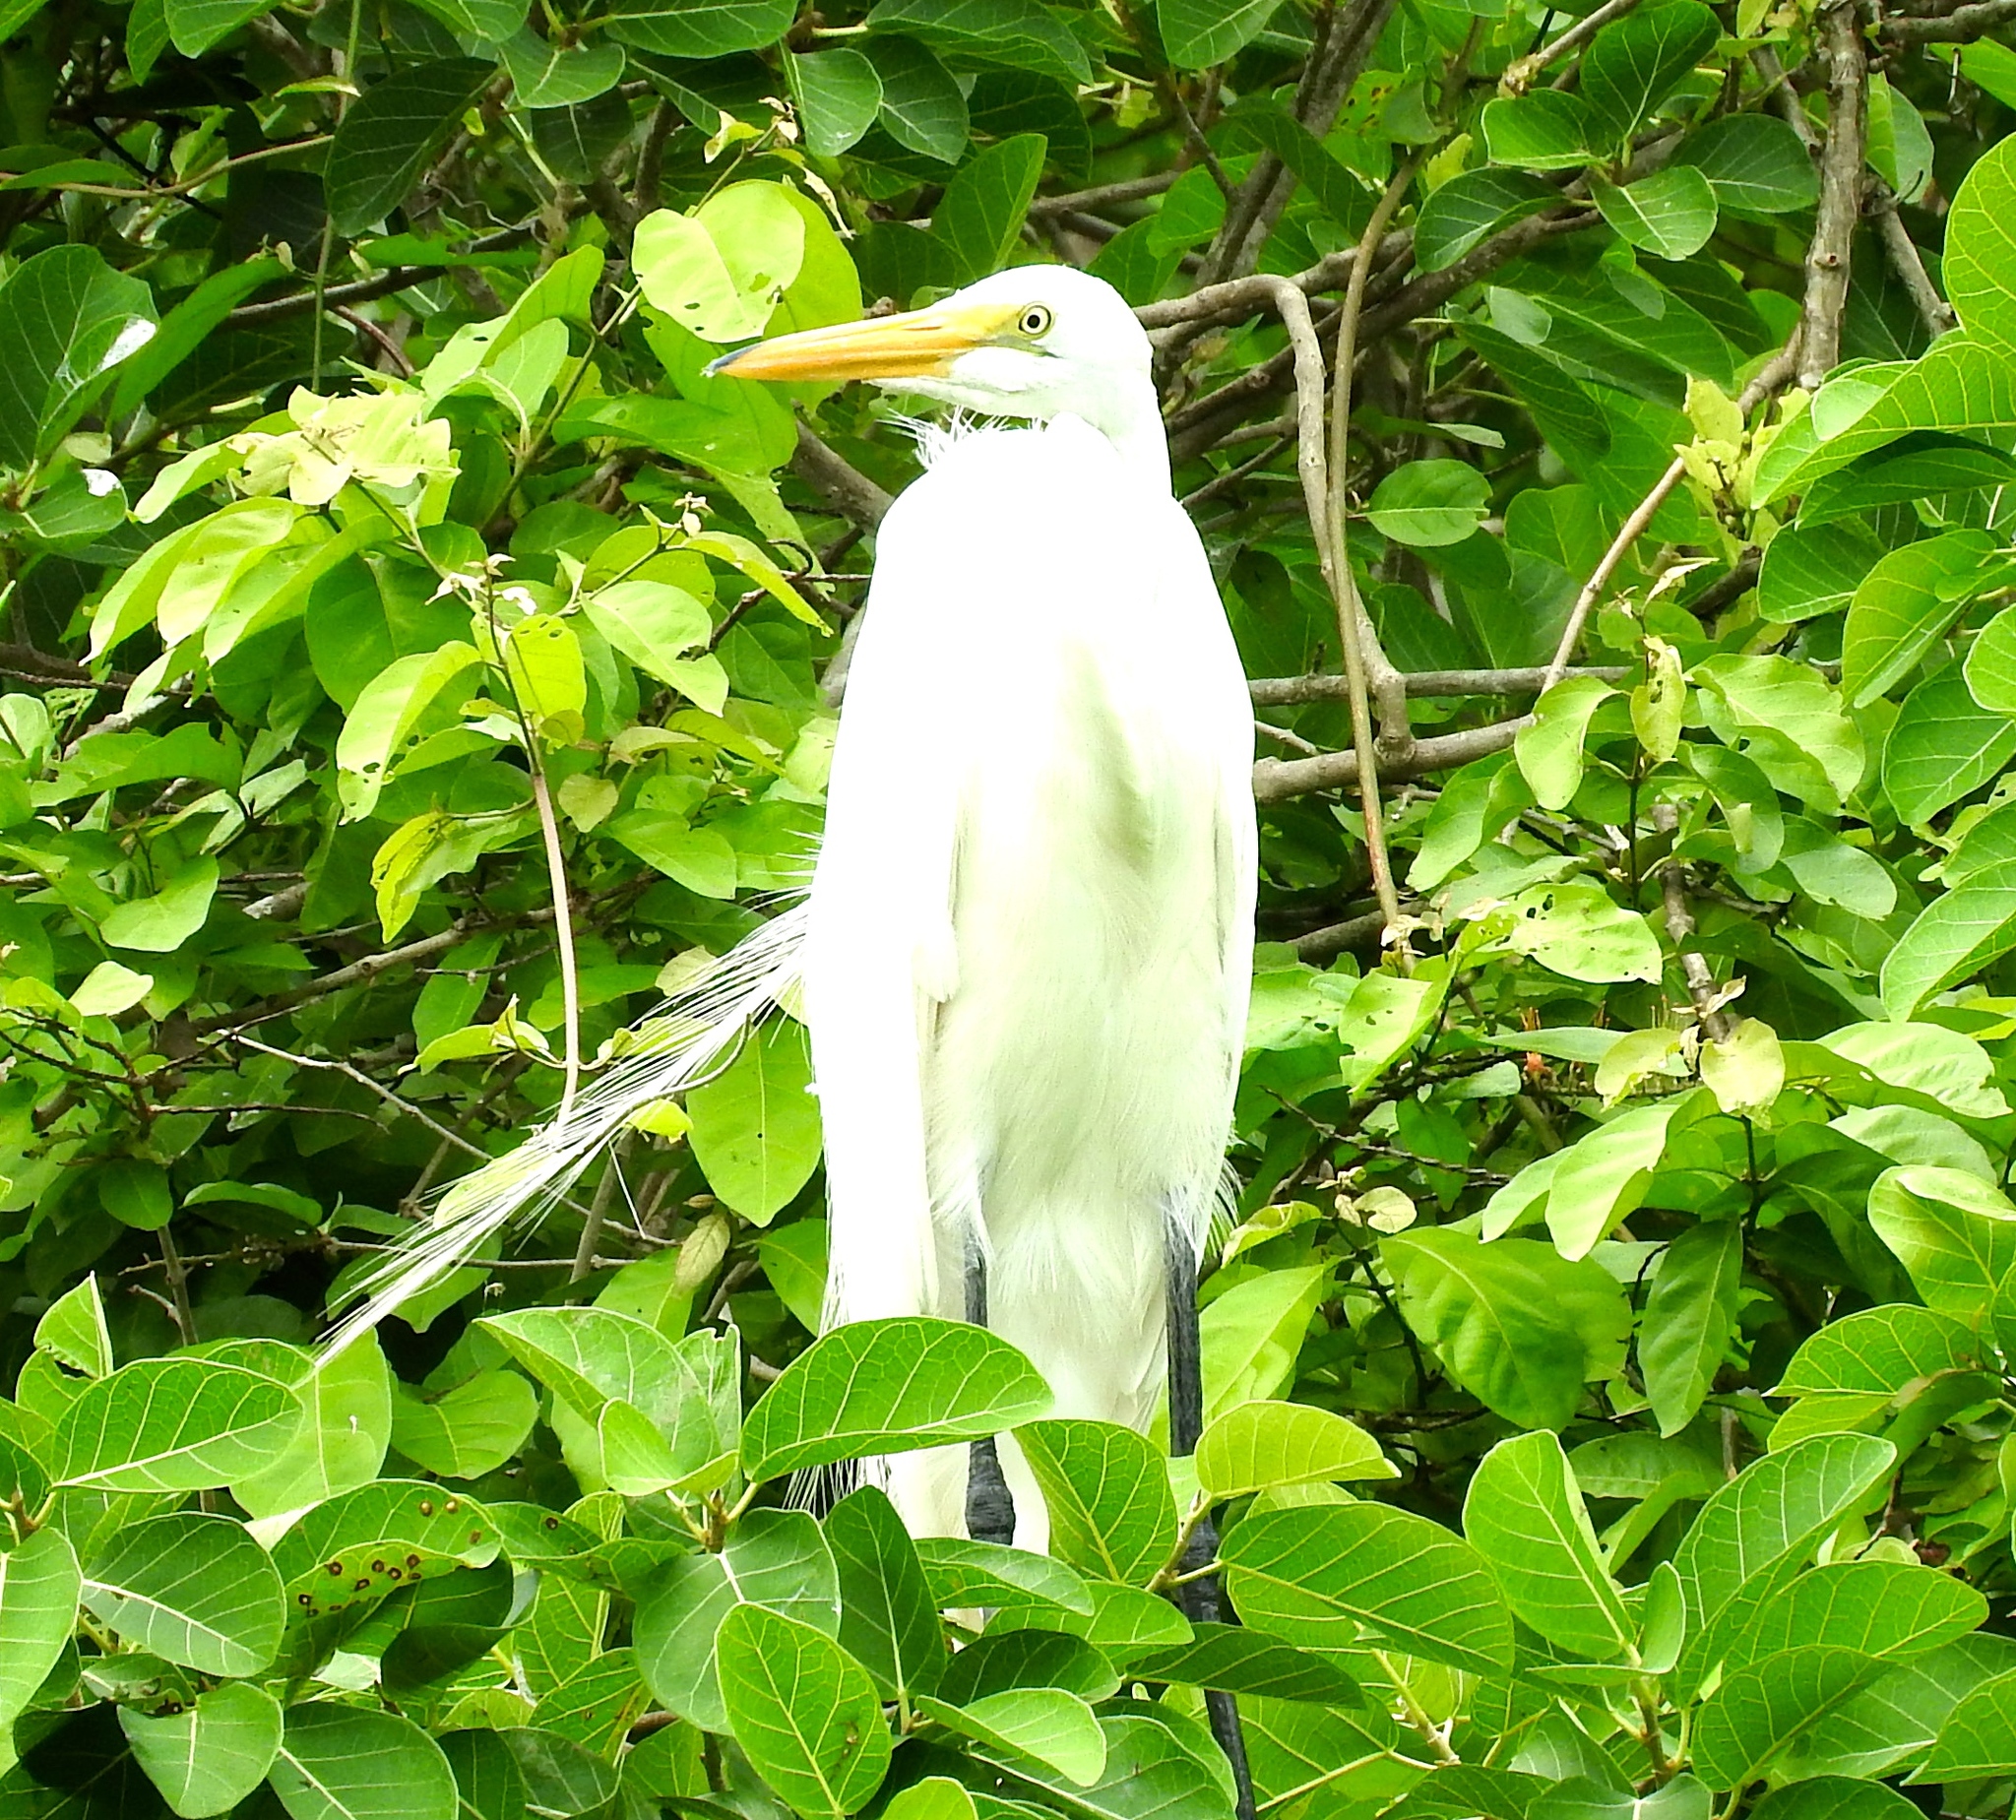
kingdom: Animalia
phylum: Chordata
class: Aves
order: Pelecaniformes
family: Ardeidae
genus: Ardea
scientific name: Ardea alba
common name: Great egret
